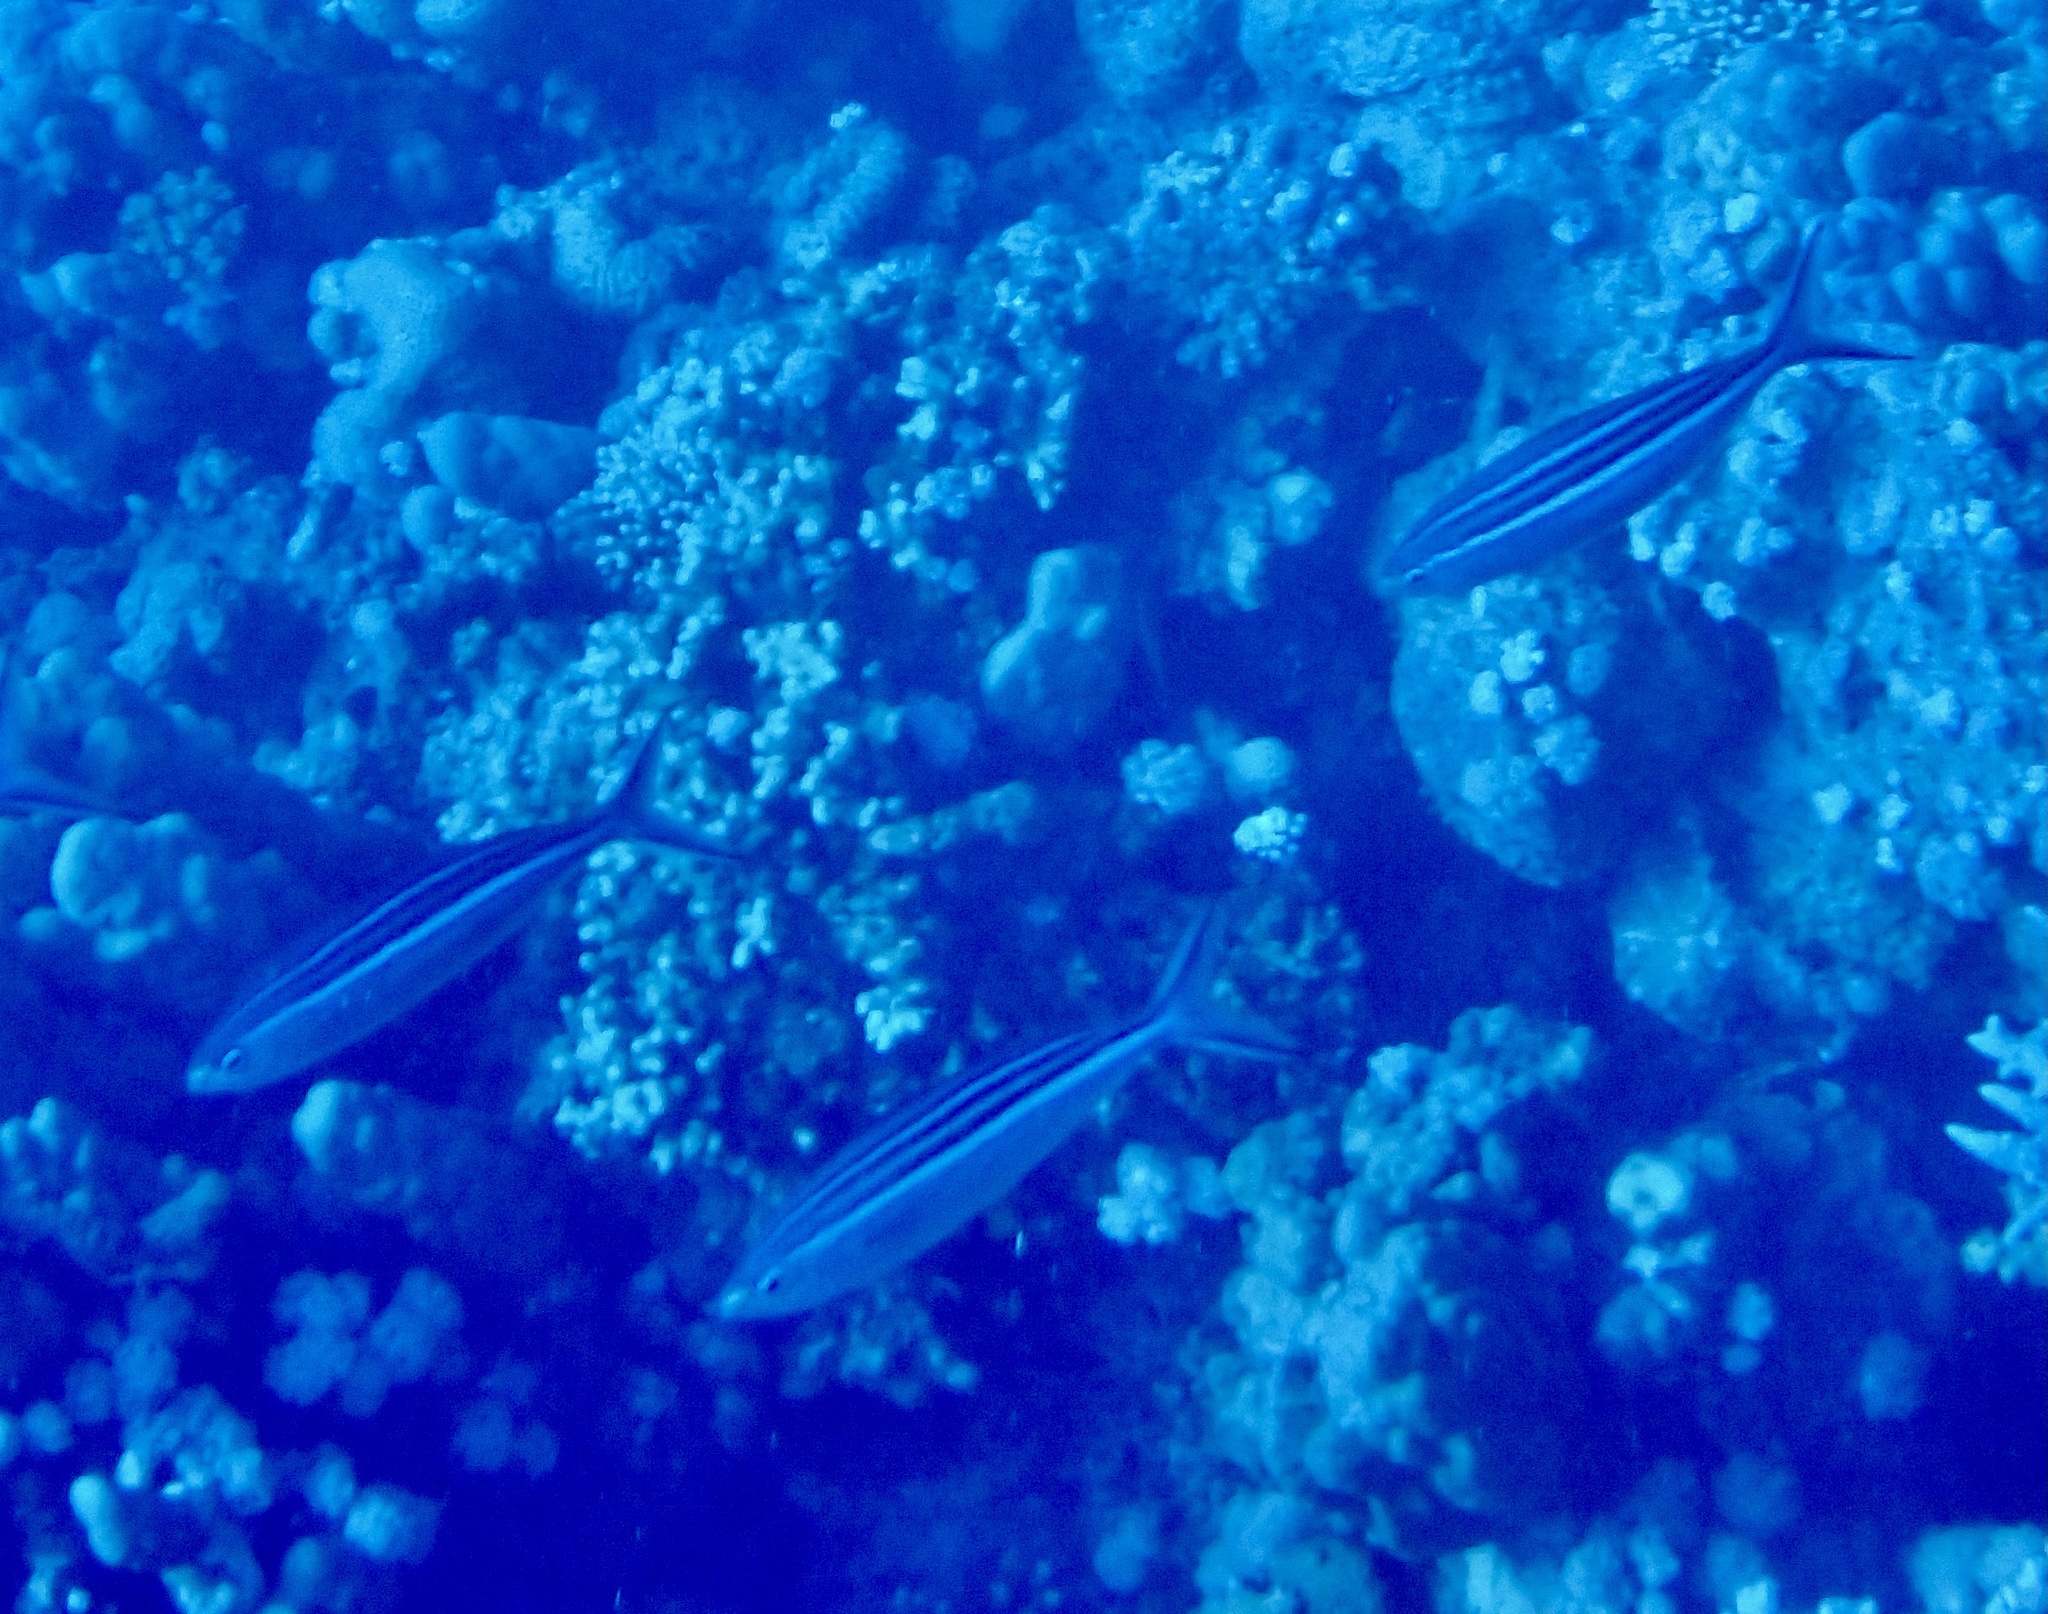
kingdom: Animalia
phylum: Chordata
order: Perciformes
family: Caesionidae
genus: Caesio
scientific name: Caesio striata
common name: Striated fusilier
